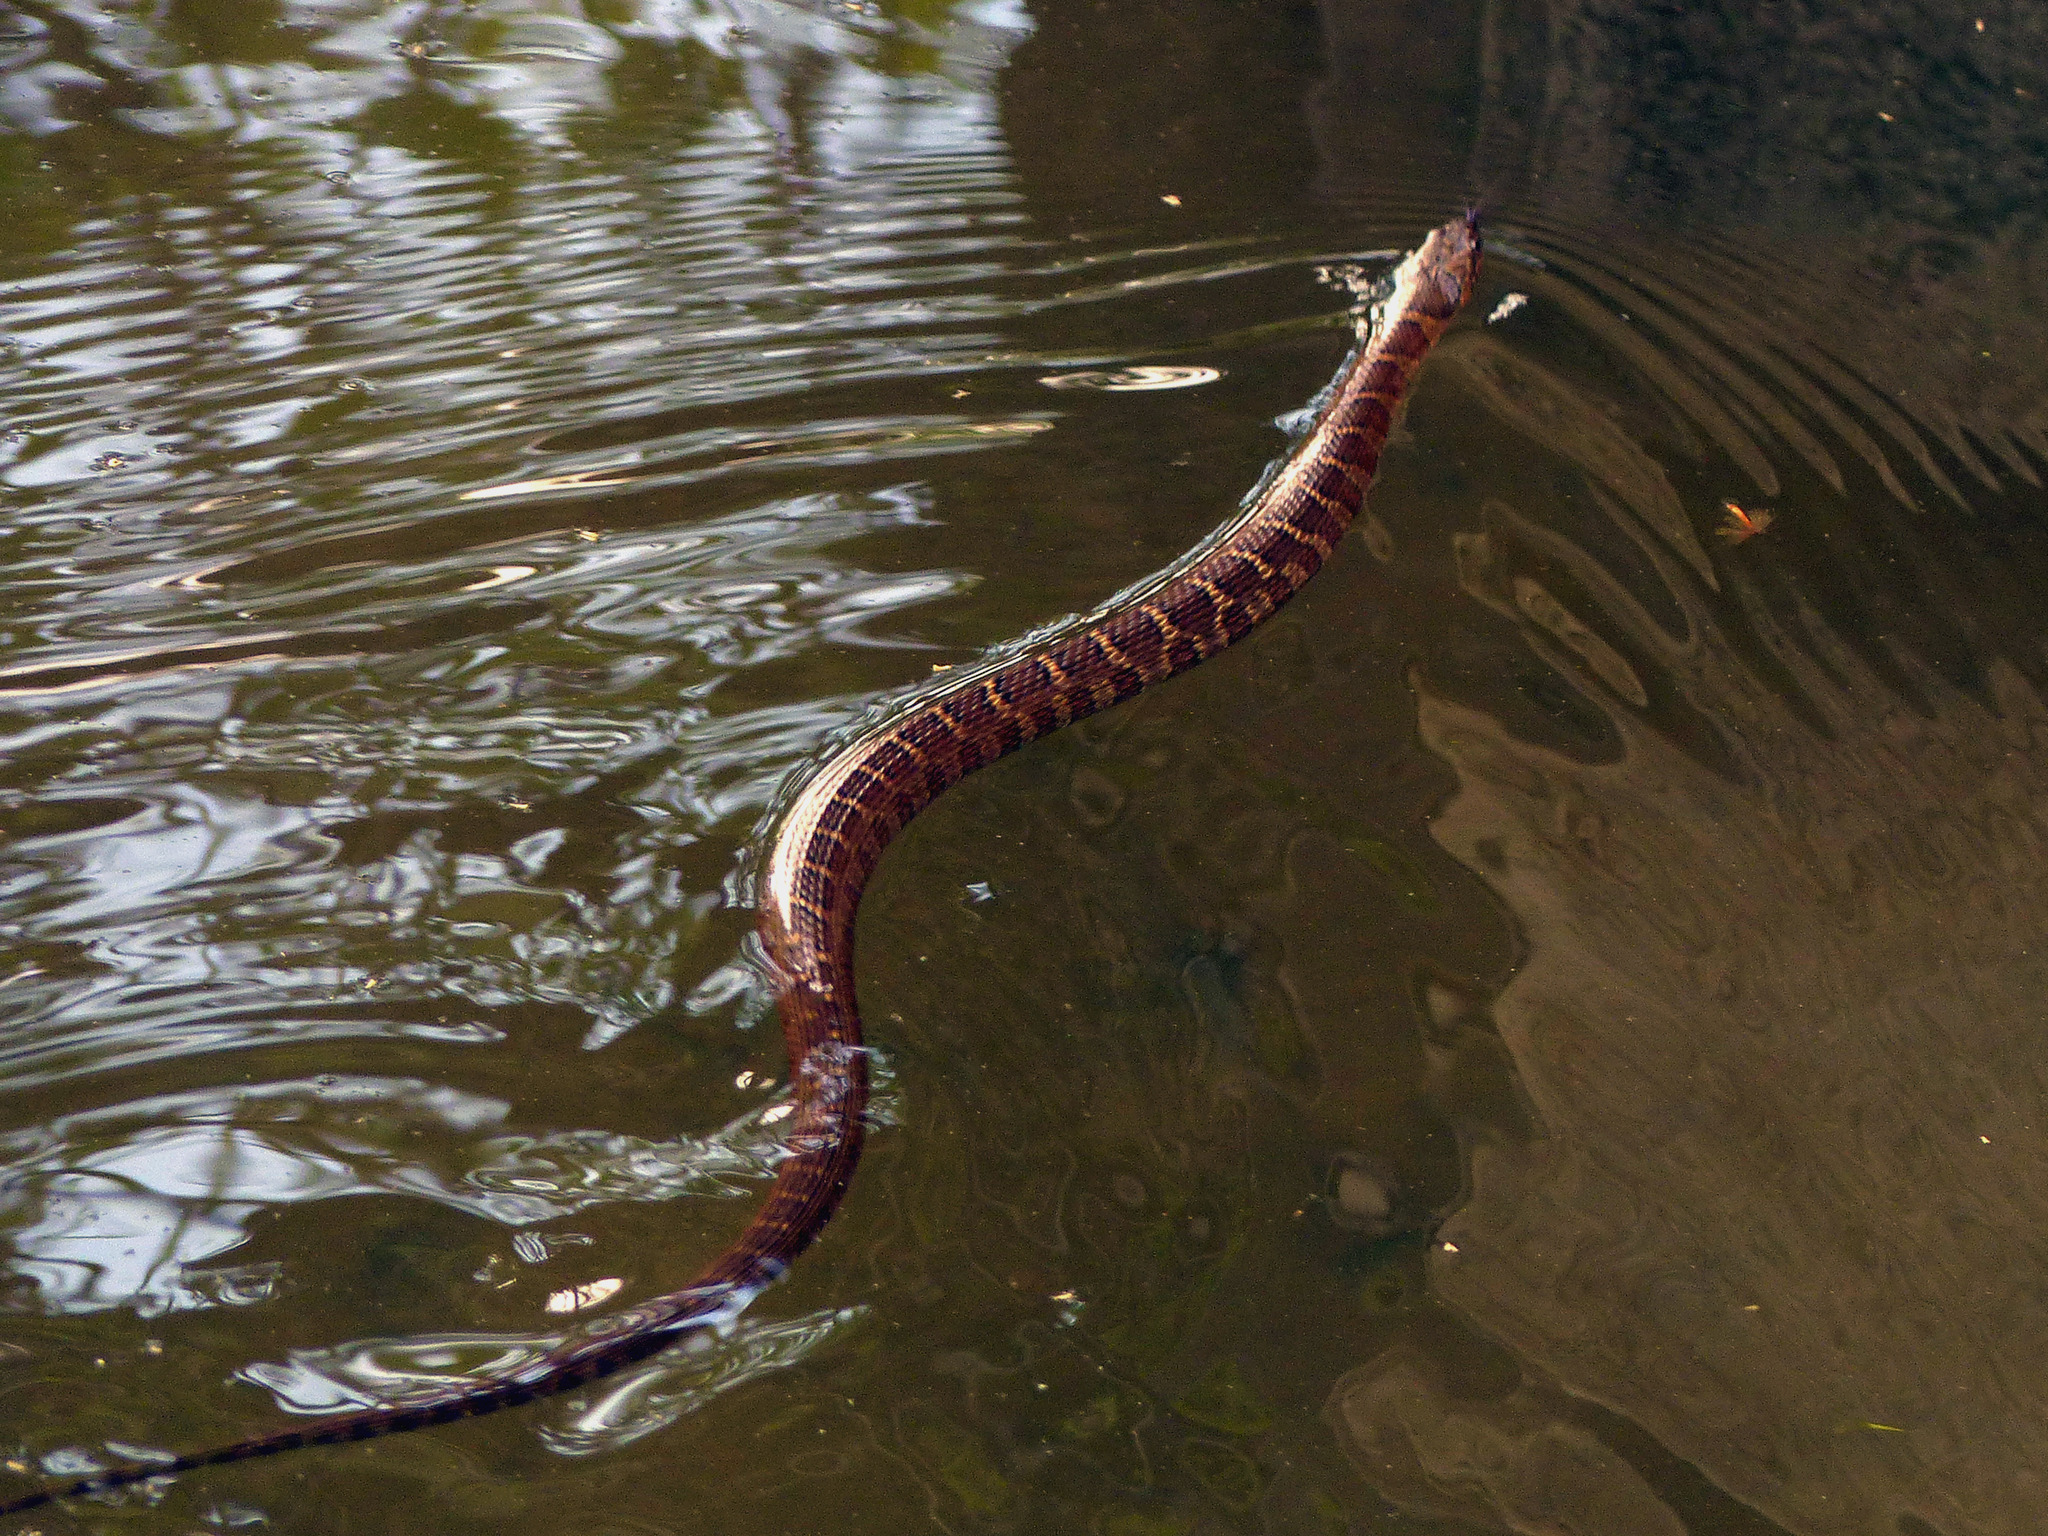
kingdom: Animalia
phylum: Chordata
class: Squamata
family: Colubridae
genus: Nerodia
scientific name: Nerodia sipedon
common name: Northern water snake
